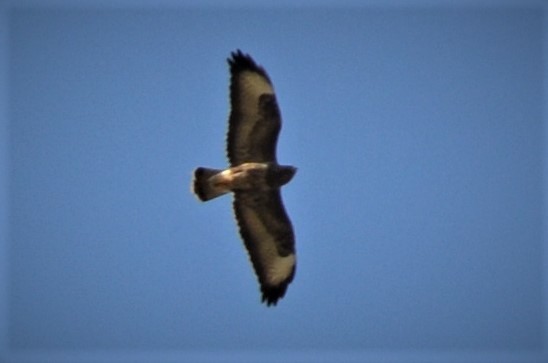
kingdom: Animalia
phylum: Chordata
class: Aves
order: Accipitriformes
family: Accipitridae
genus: Buteo
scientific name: Buteo buteo
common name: Common buzzard
